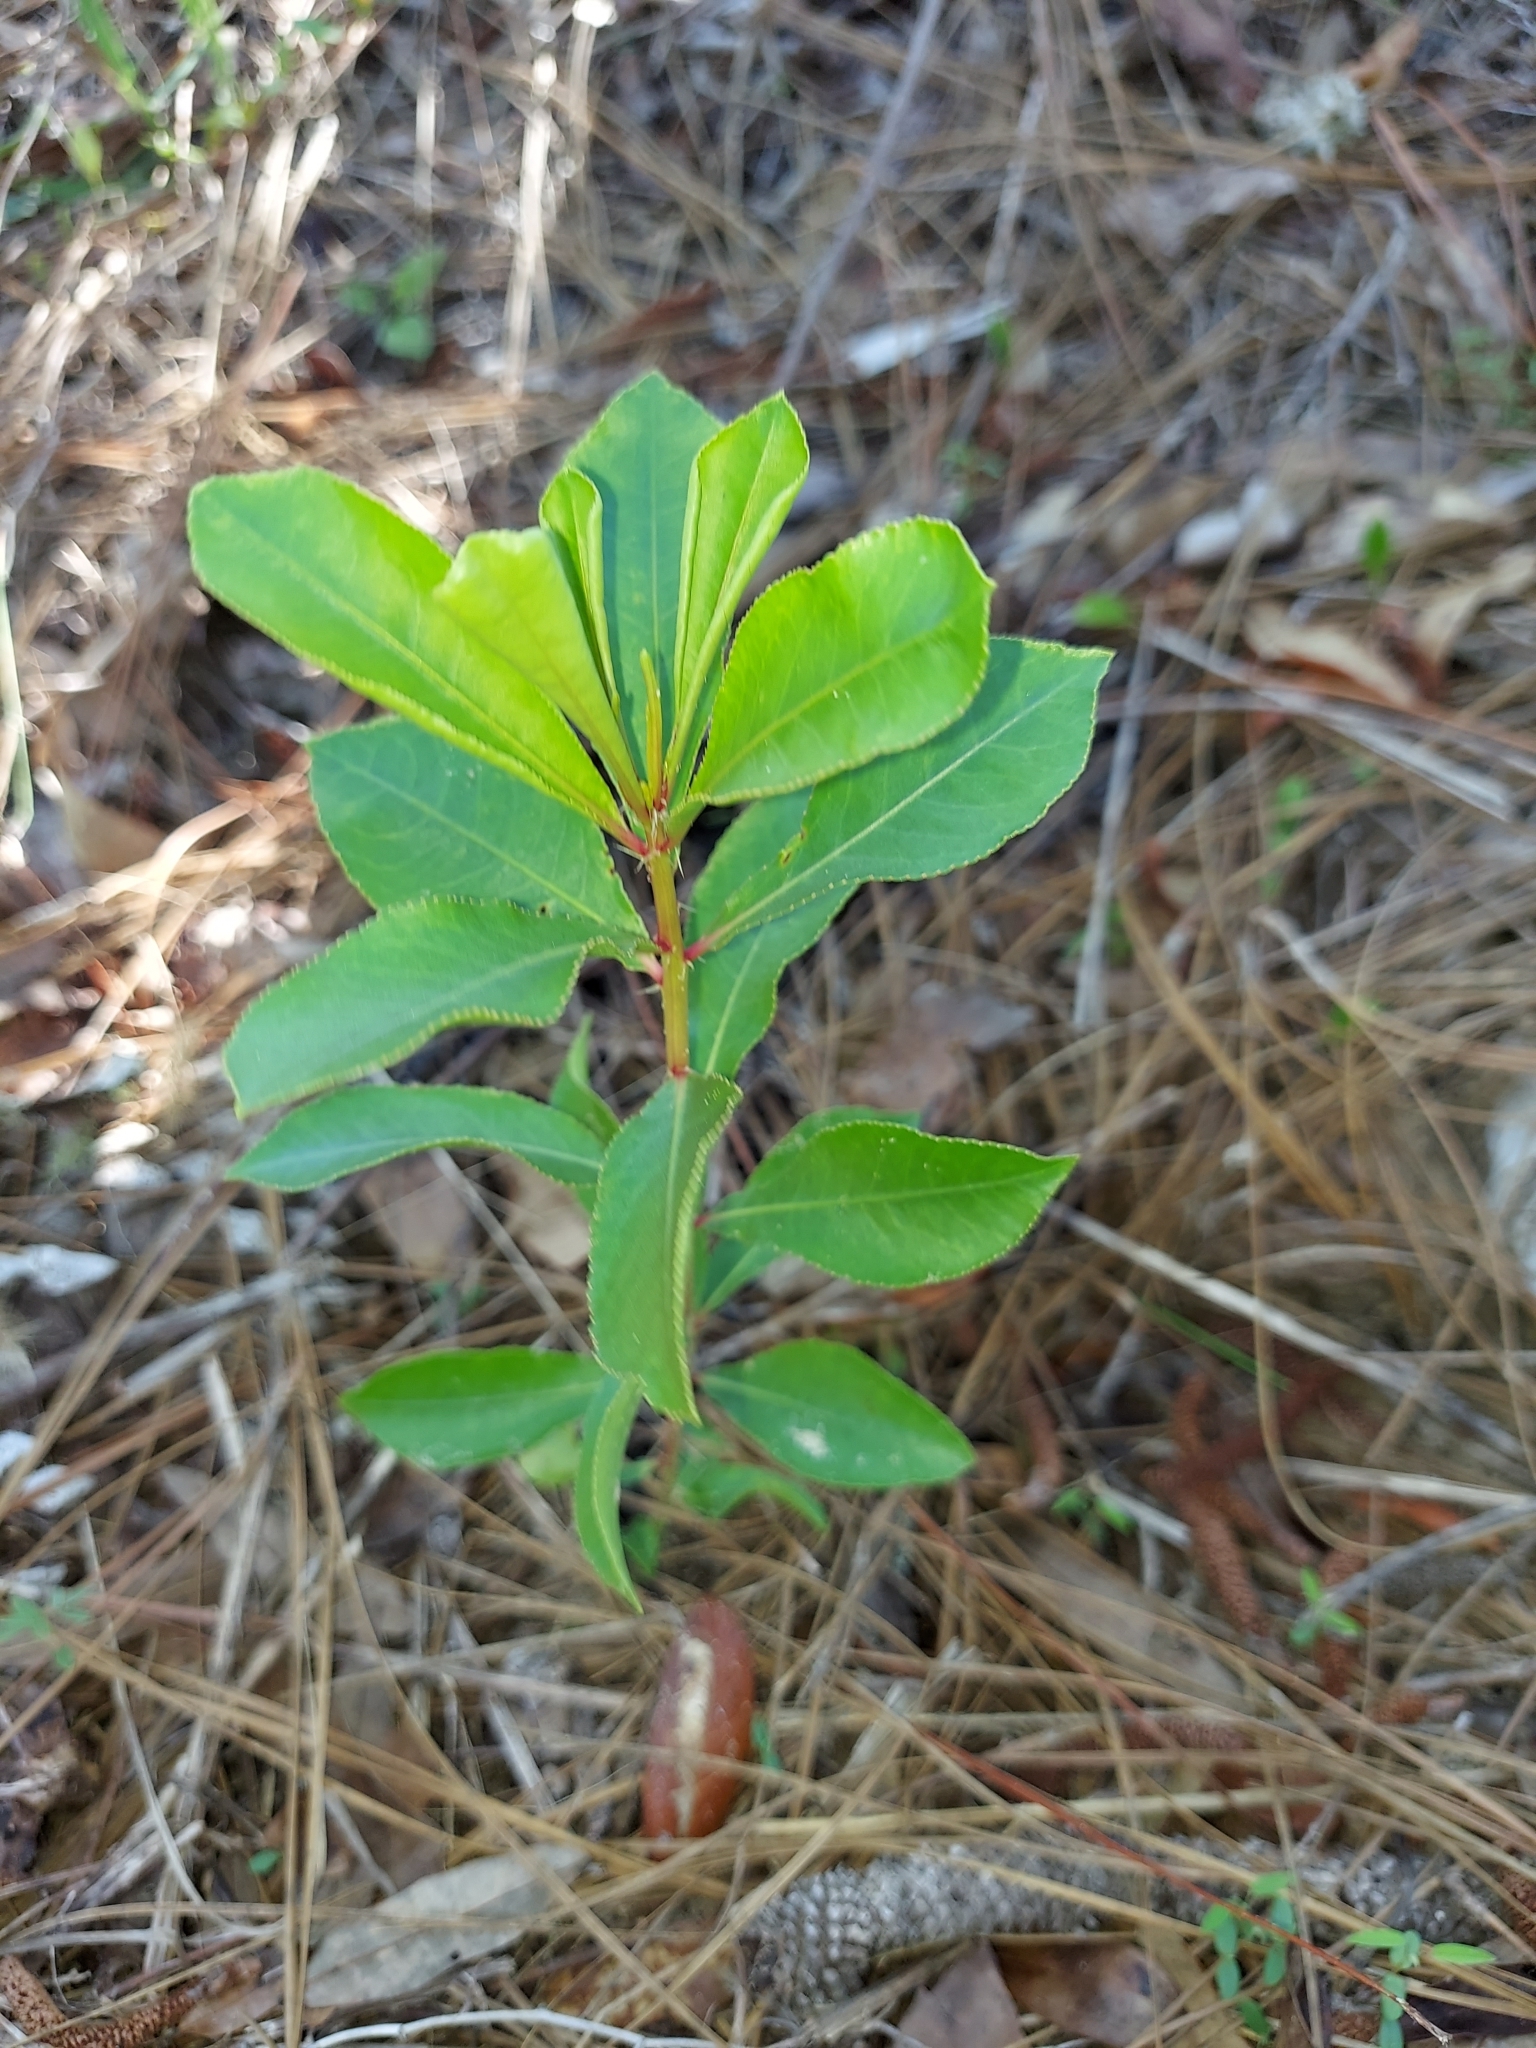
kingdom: Plantae
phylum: Tracheophyta
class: Magnoliopsida
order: Malpighiales
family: Euphorbiaceae
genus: Stillingia
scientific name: Stillingia sylvatica
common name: Queen's-delight
